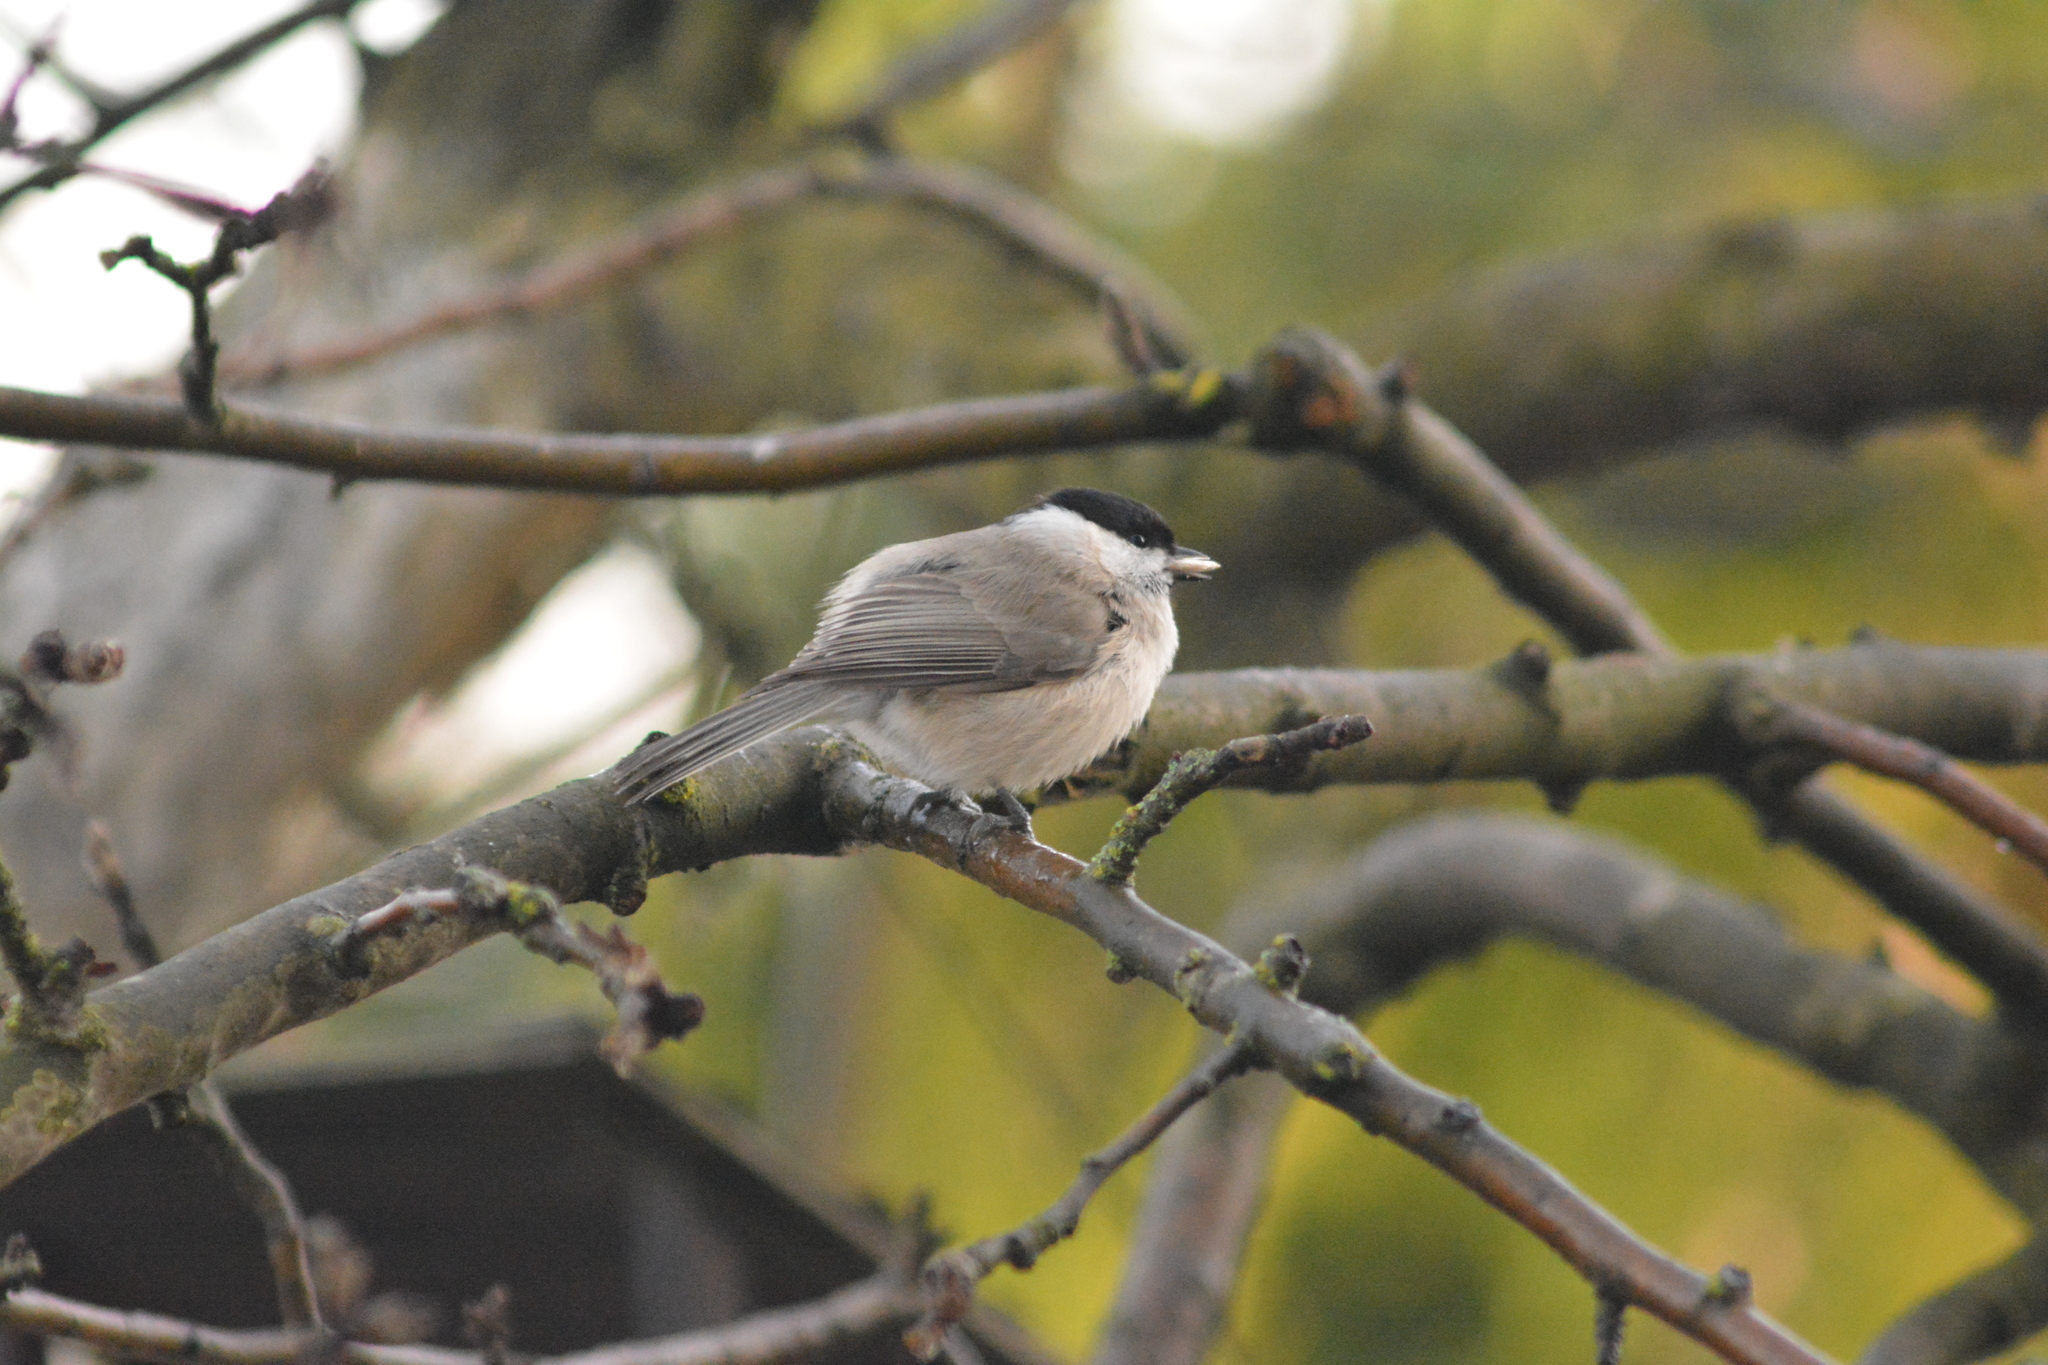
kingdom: Animalia
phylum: Chordata
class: Aves
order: Passeriformes
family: Paridae
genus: Poecile
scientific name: Poecile palustris
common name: Marsh tit
